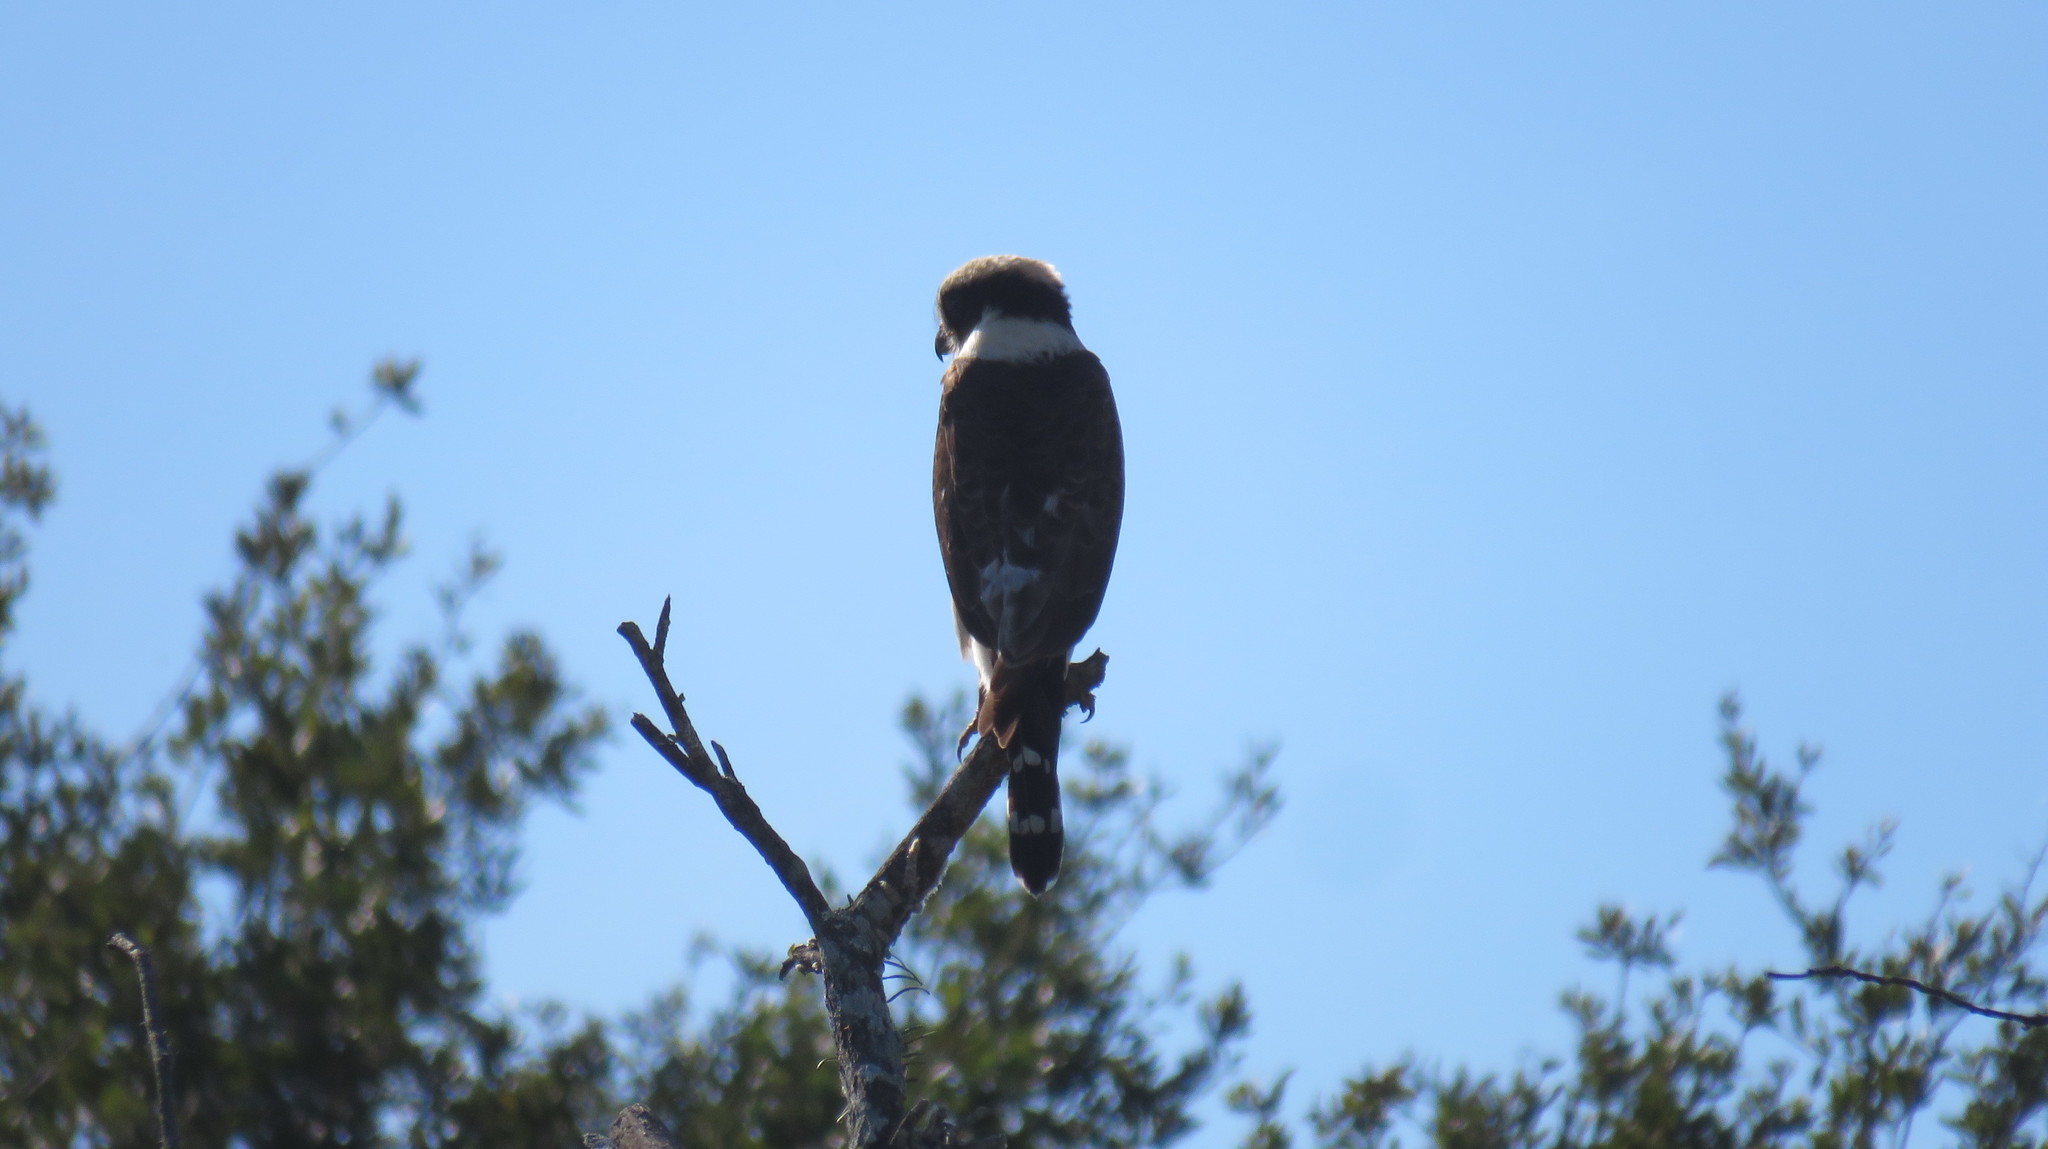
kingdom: Animalia
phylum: Chordata
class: Aves
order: Falconiformes
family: Falconidae
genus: Herpetotheres
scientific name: Herpetotheres cachinnans
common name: Laughing falcon
